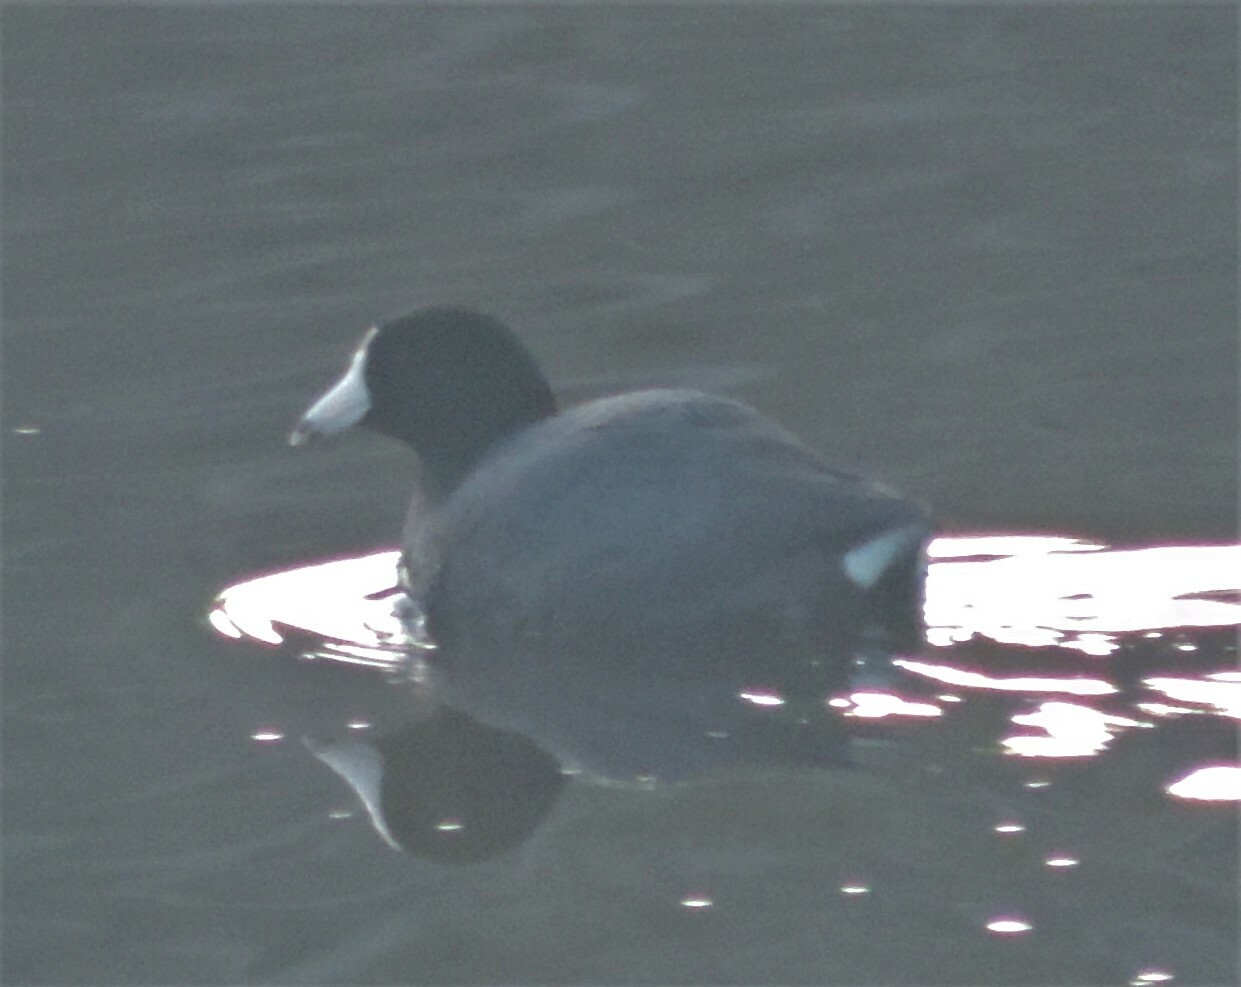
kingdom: Animalia
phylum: Chordata
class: Aves
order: Gruiformes
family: Rallidae
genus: Fulica
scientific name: Fulica americana
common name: American coot
